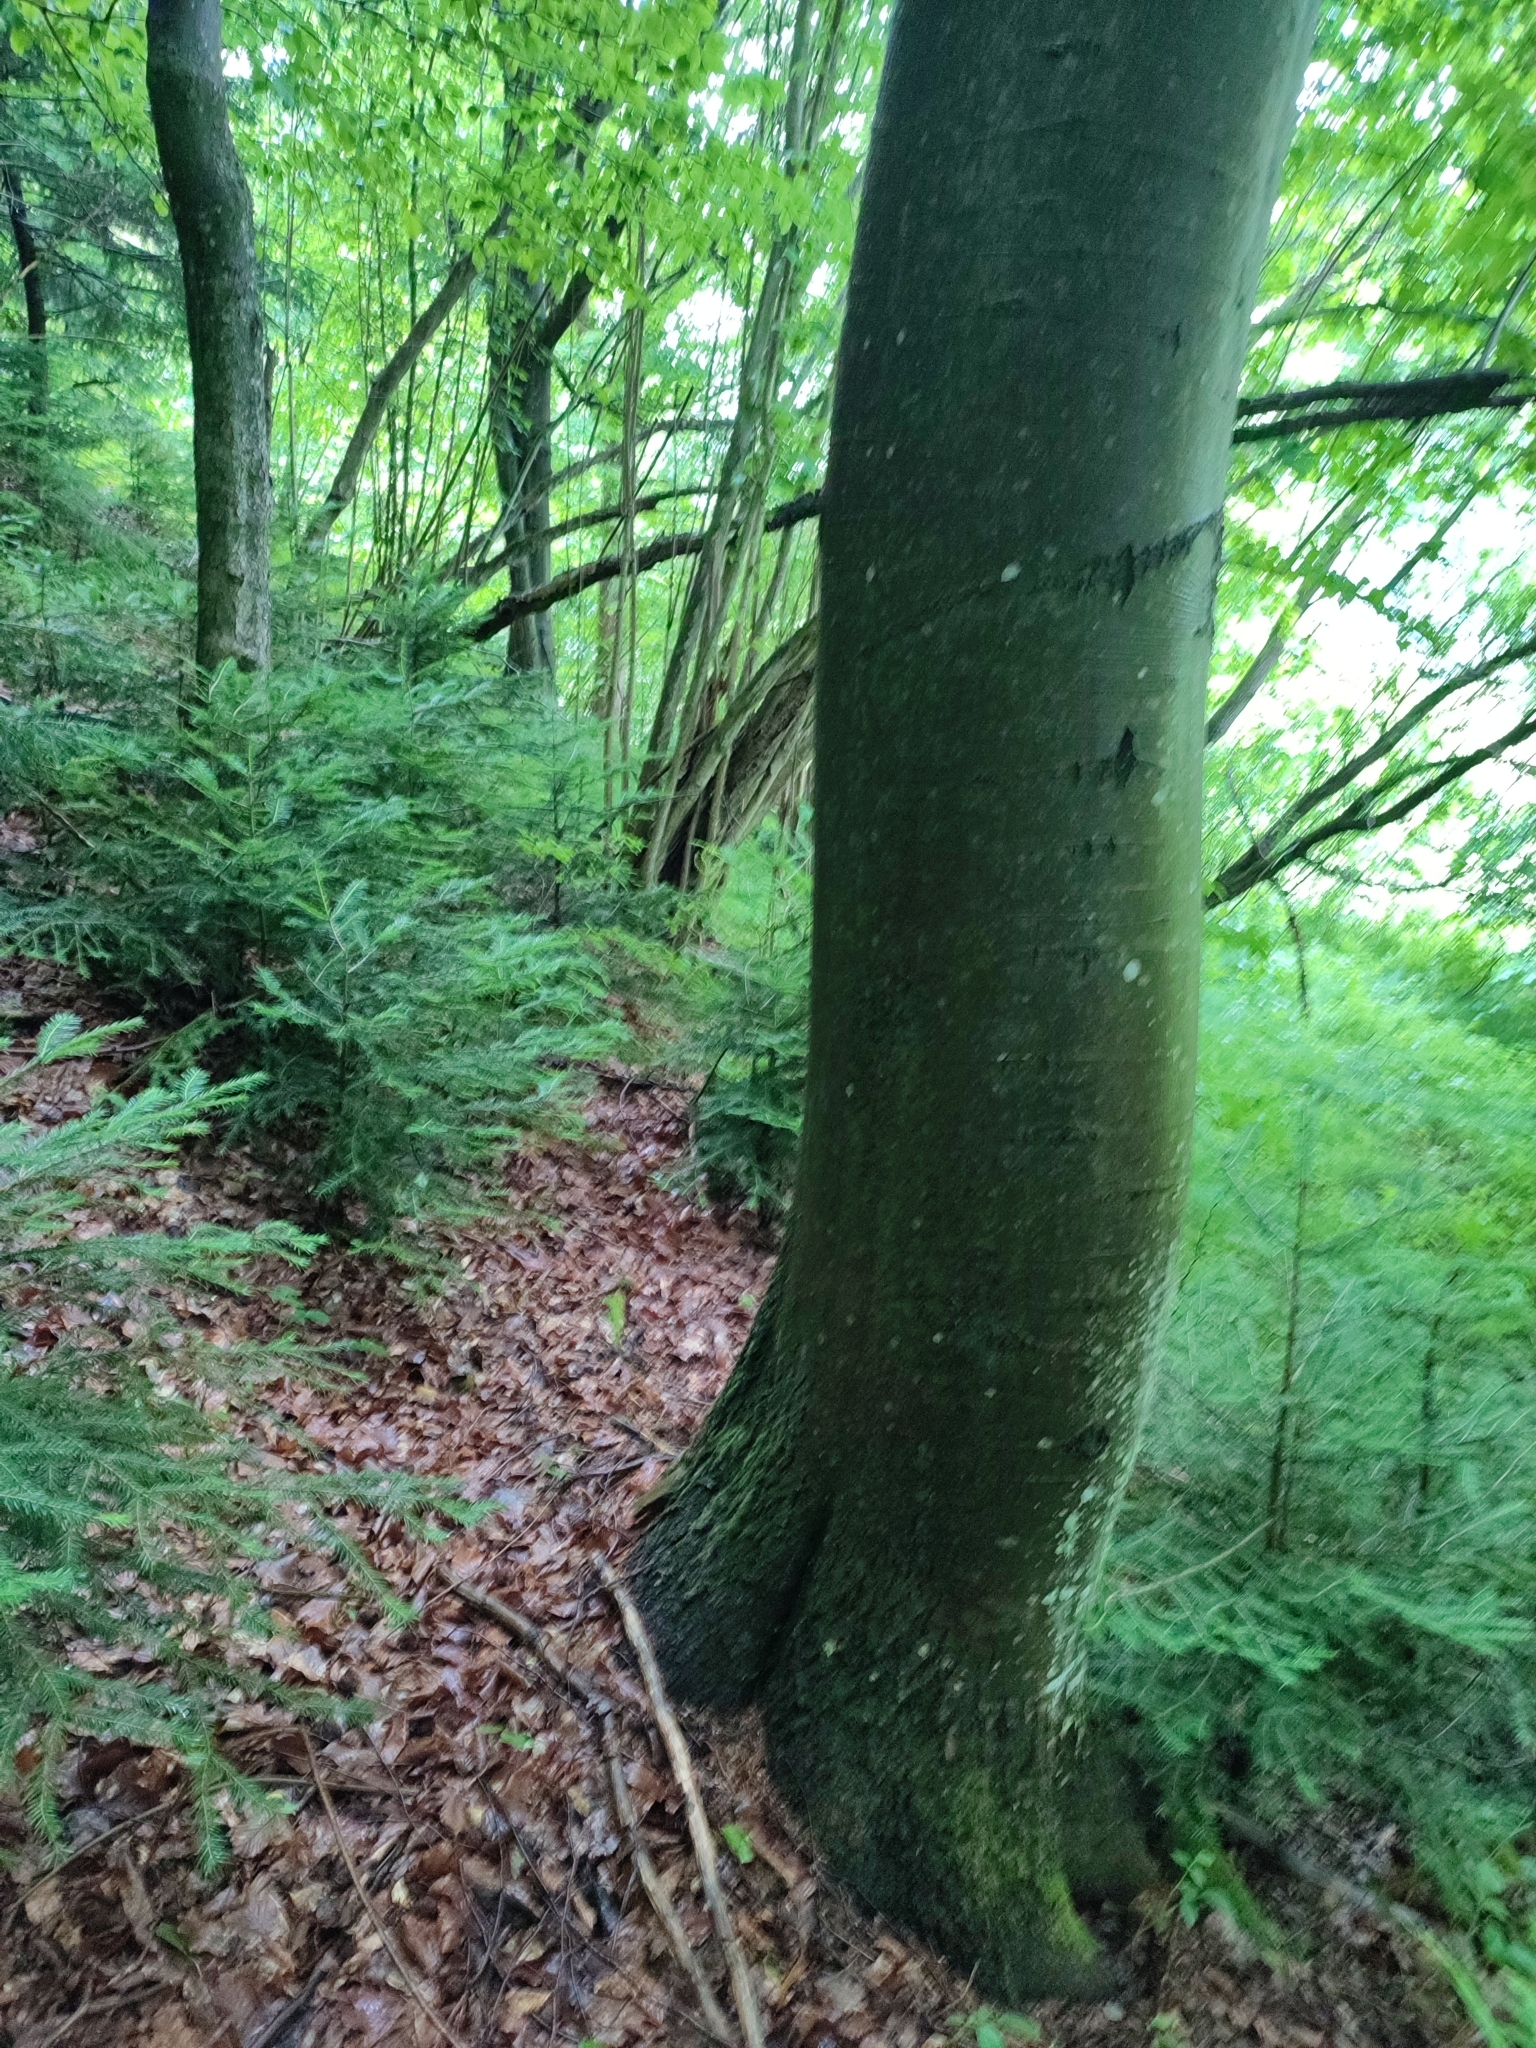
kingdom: Plantae
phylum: Tracheophyta
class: Magnoliopsida
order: Fagales
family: Fagaceae
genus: Fagus
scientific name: Fagus sylvatica
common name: Beech
